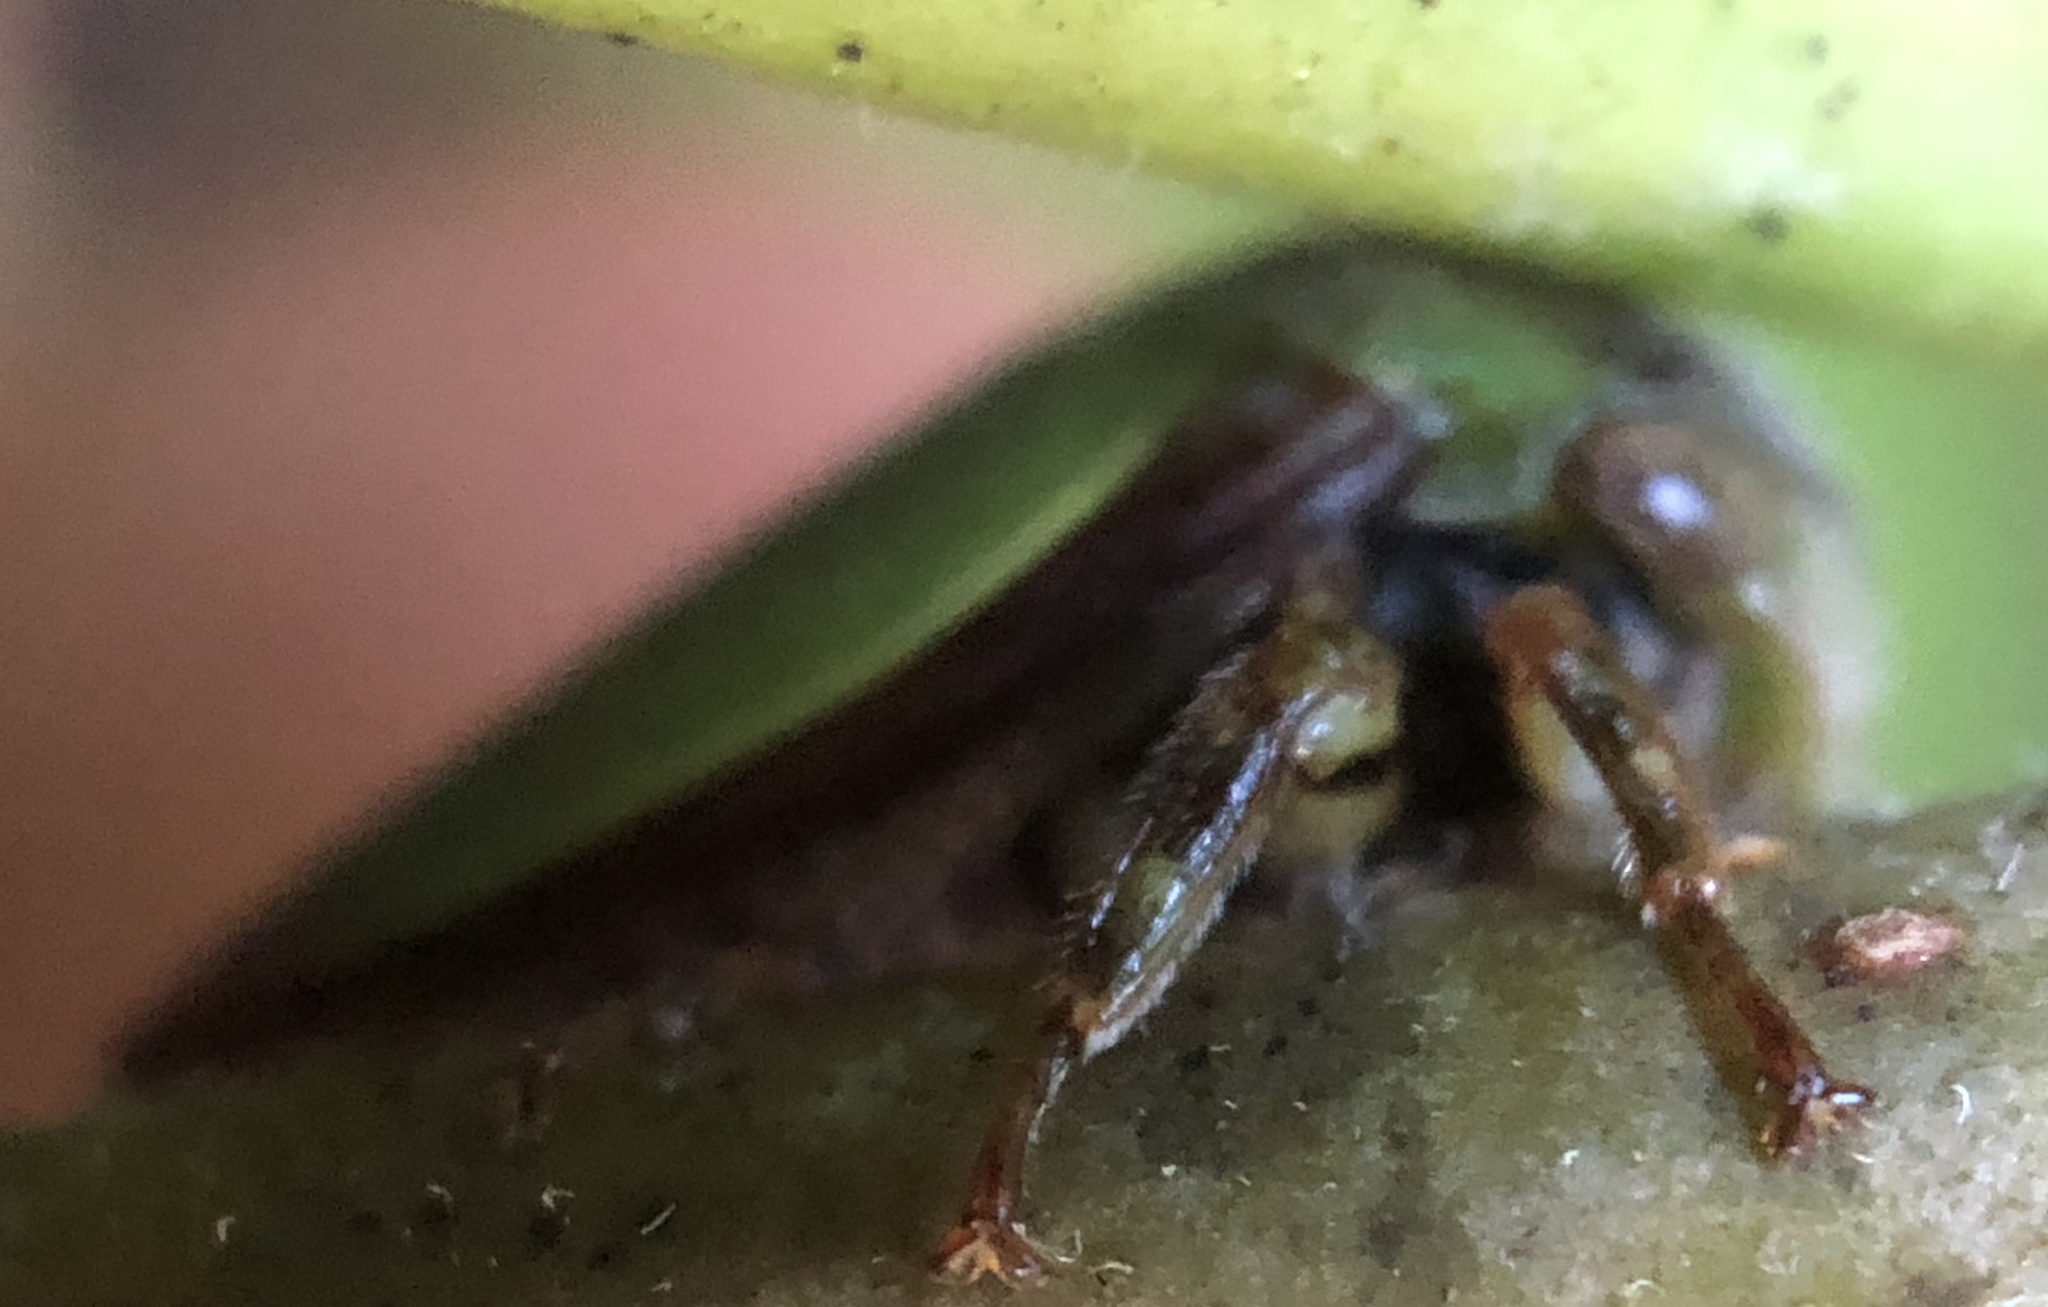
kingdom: Animalia
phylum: Arthropoda
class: Insecta
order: Hemiptera
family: Membracidae
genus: Hebetica
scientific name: Hebetica
